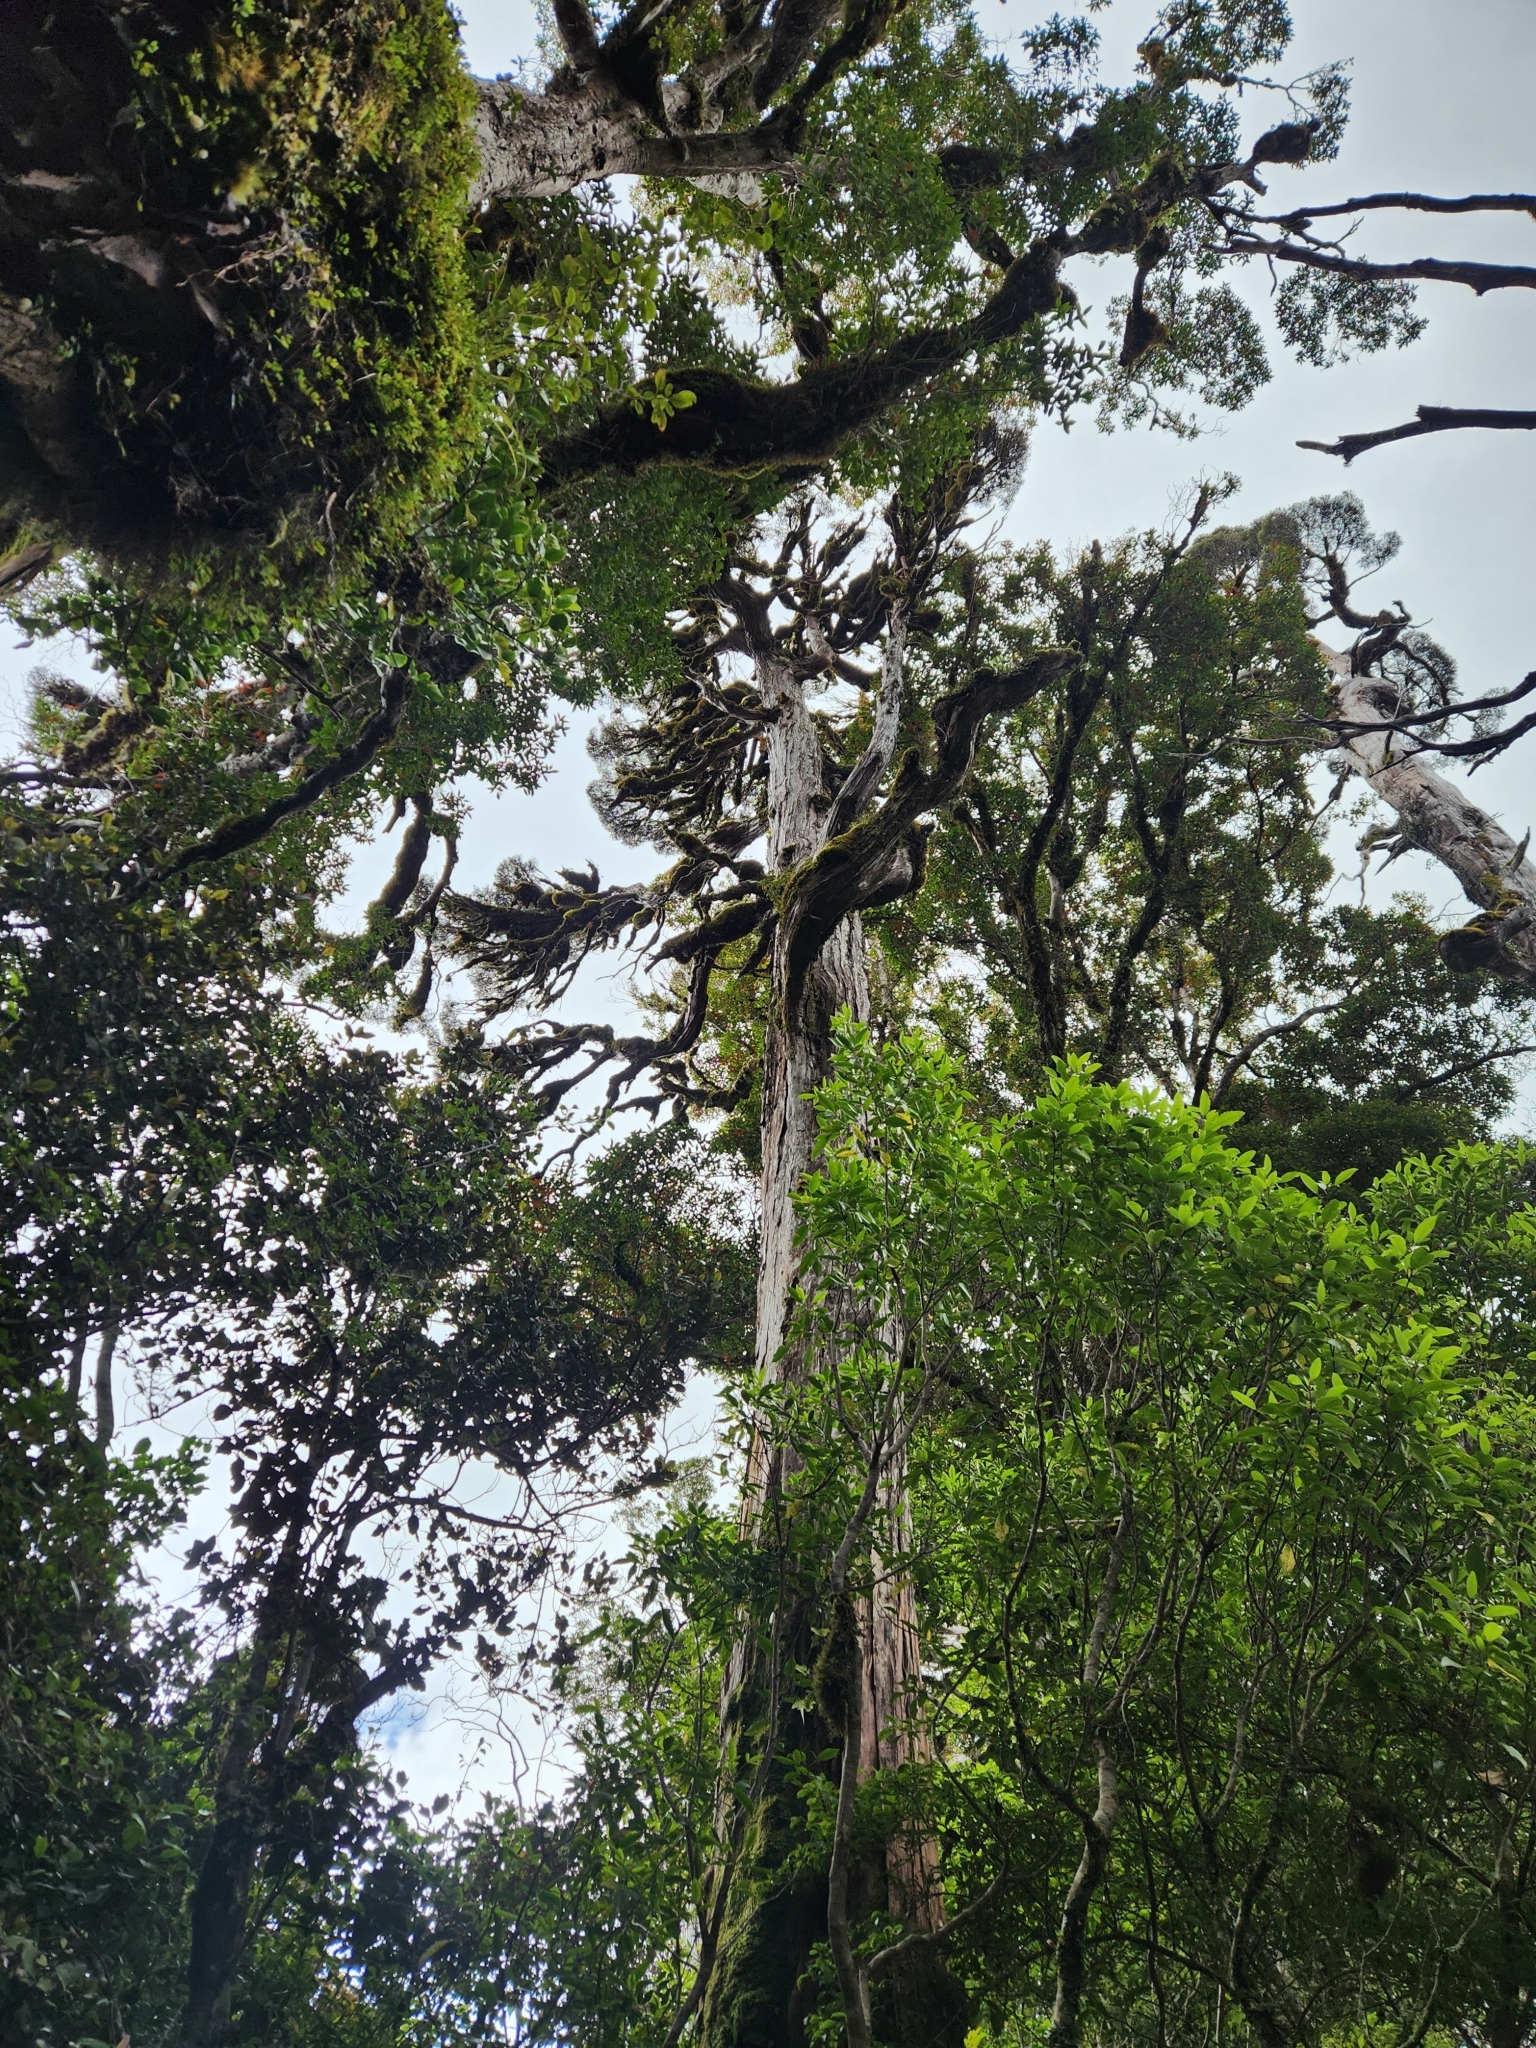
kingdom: Plantae
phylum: Tracheophyta
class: Pinopsida
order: Pinales
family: Cupressaceae
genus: Libocedrus
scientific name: Libocedrus bidwillii
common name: Cedar
